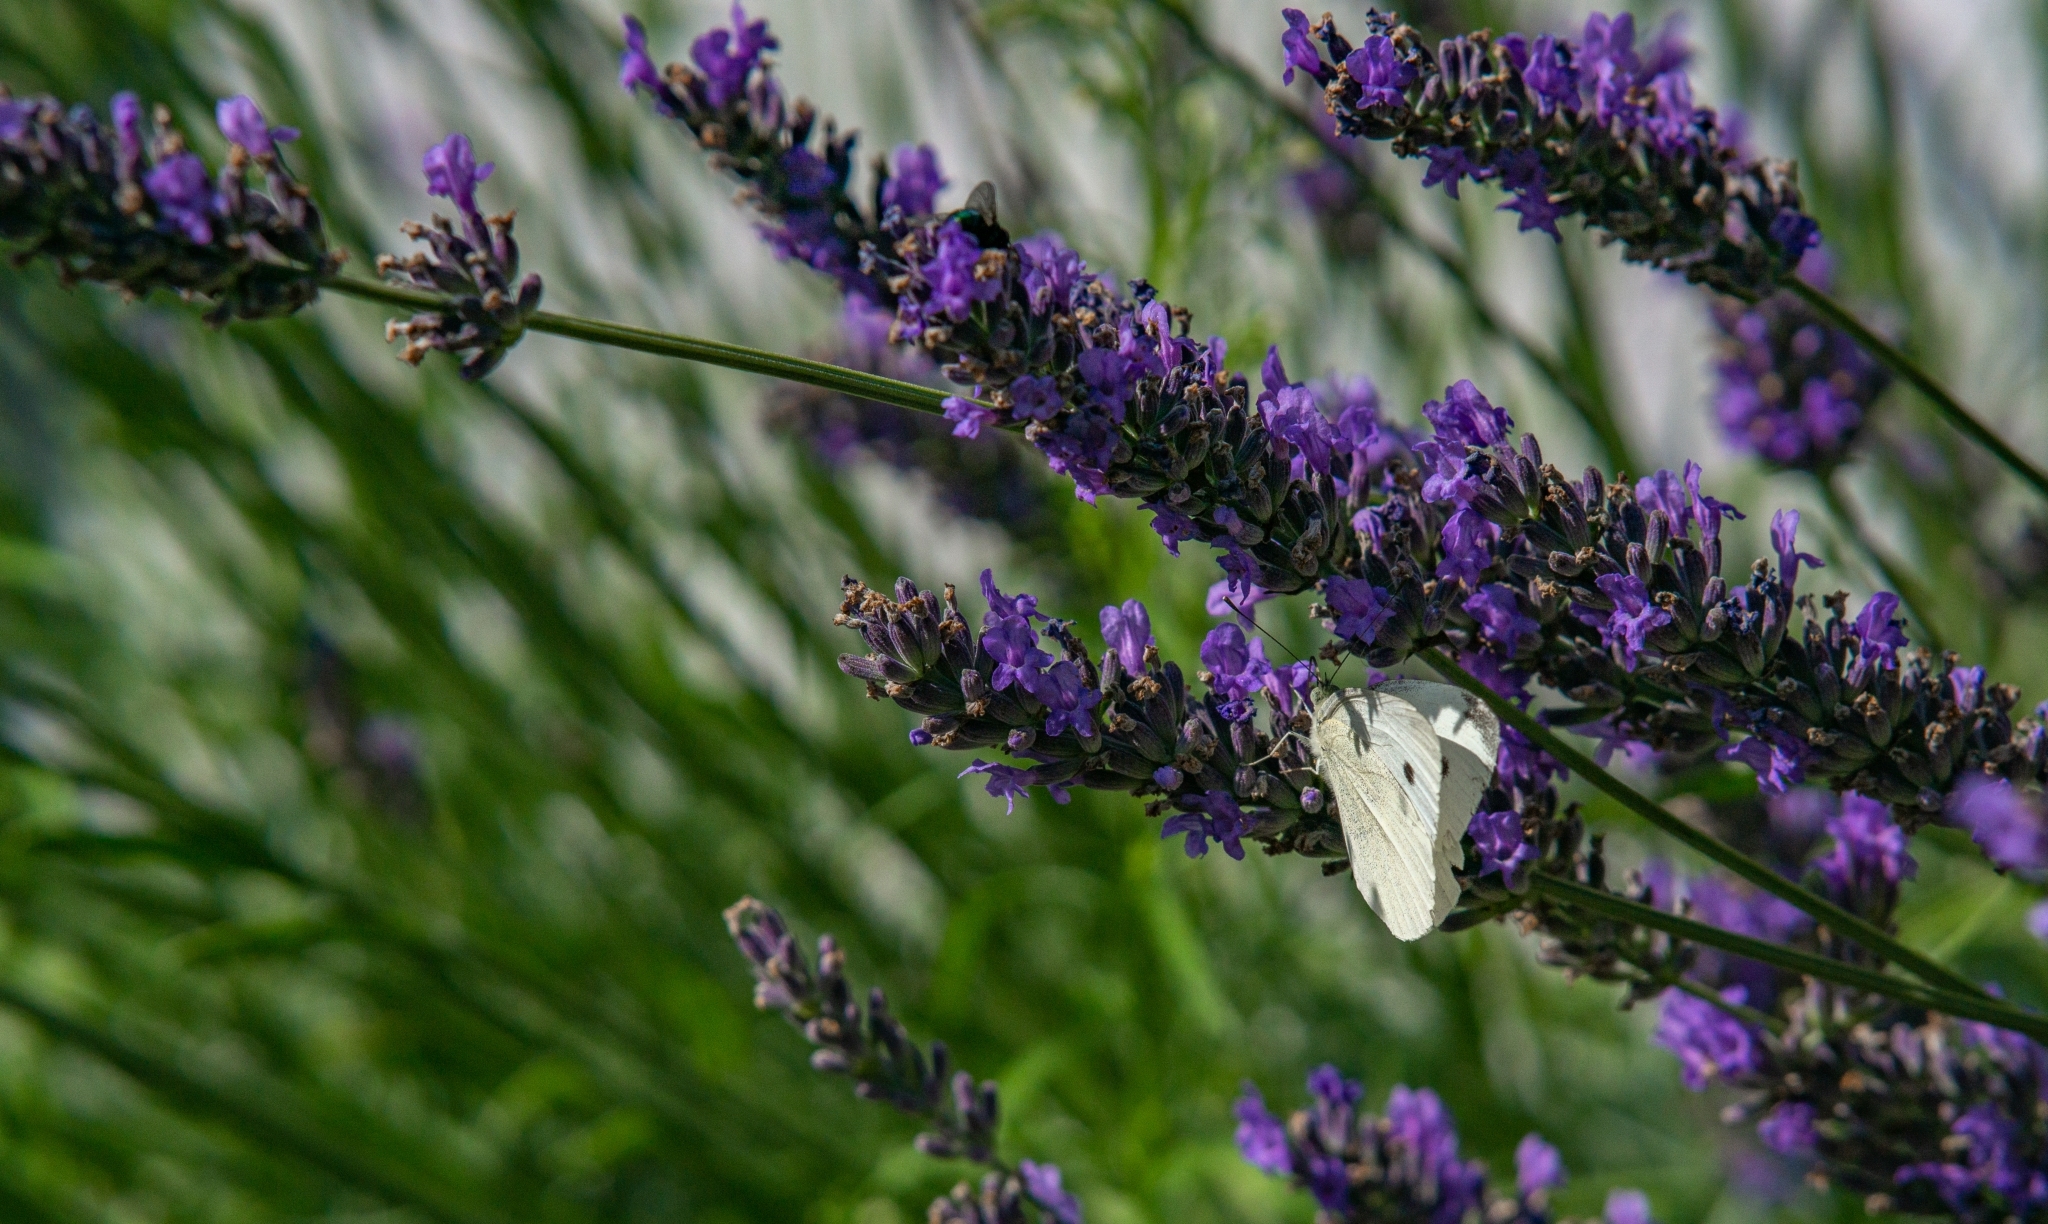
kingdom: Animalia
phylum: Arthropoda
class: Insecta
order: Lepidoptera
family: Pieridae
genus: Pieris
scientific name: Pieris rapae
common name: Small white
